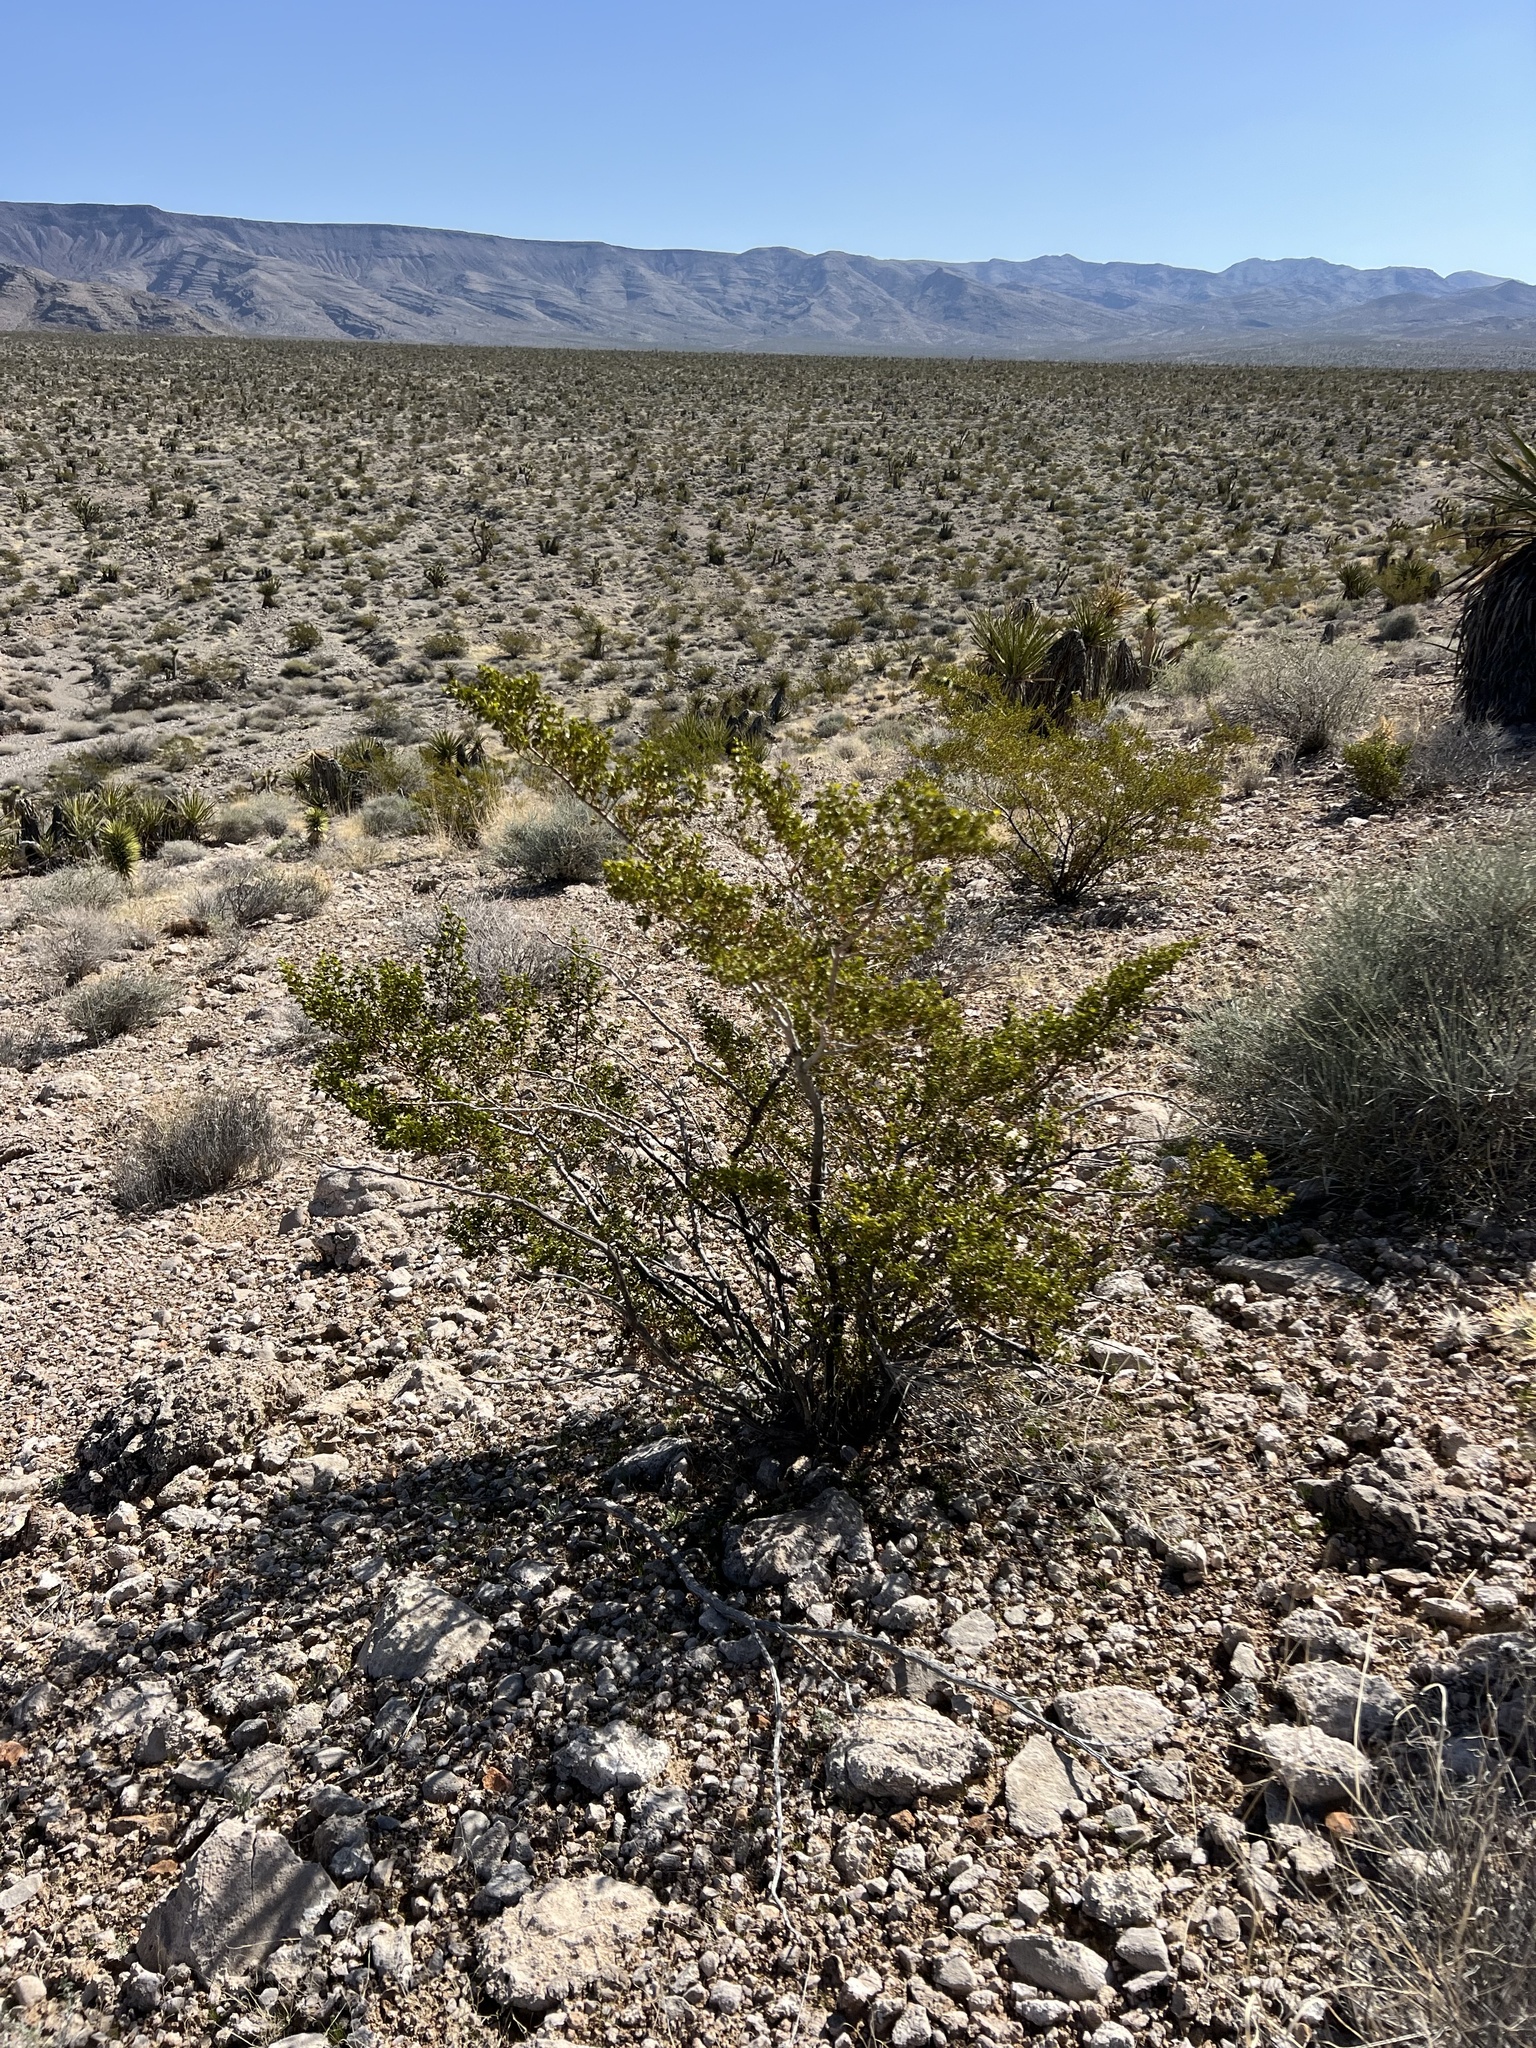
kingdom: Plantae
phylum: Tracheophyta
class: Magnoliopsida
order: Zygophyllales
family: Zygophyllaceae
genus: Larrea
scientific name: Larrea tridentata
